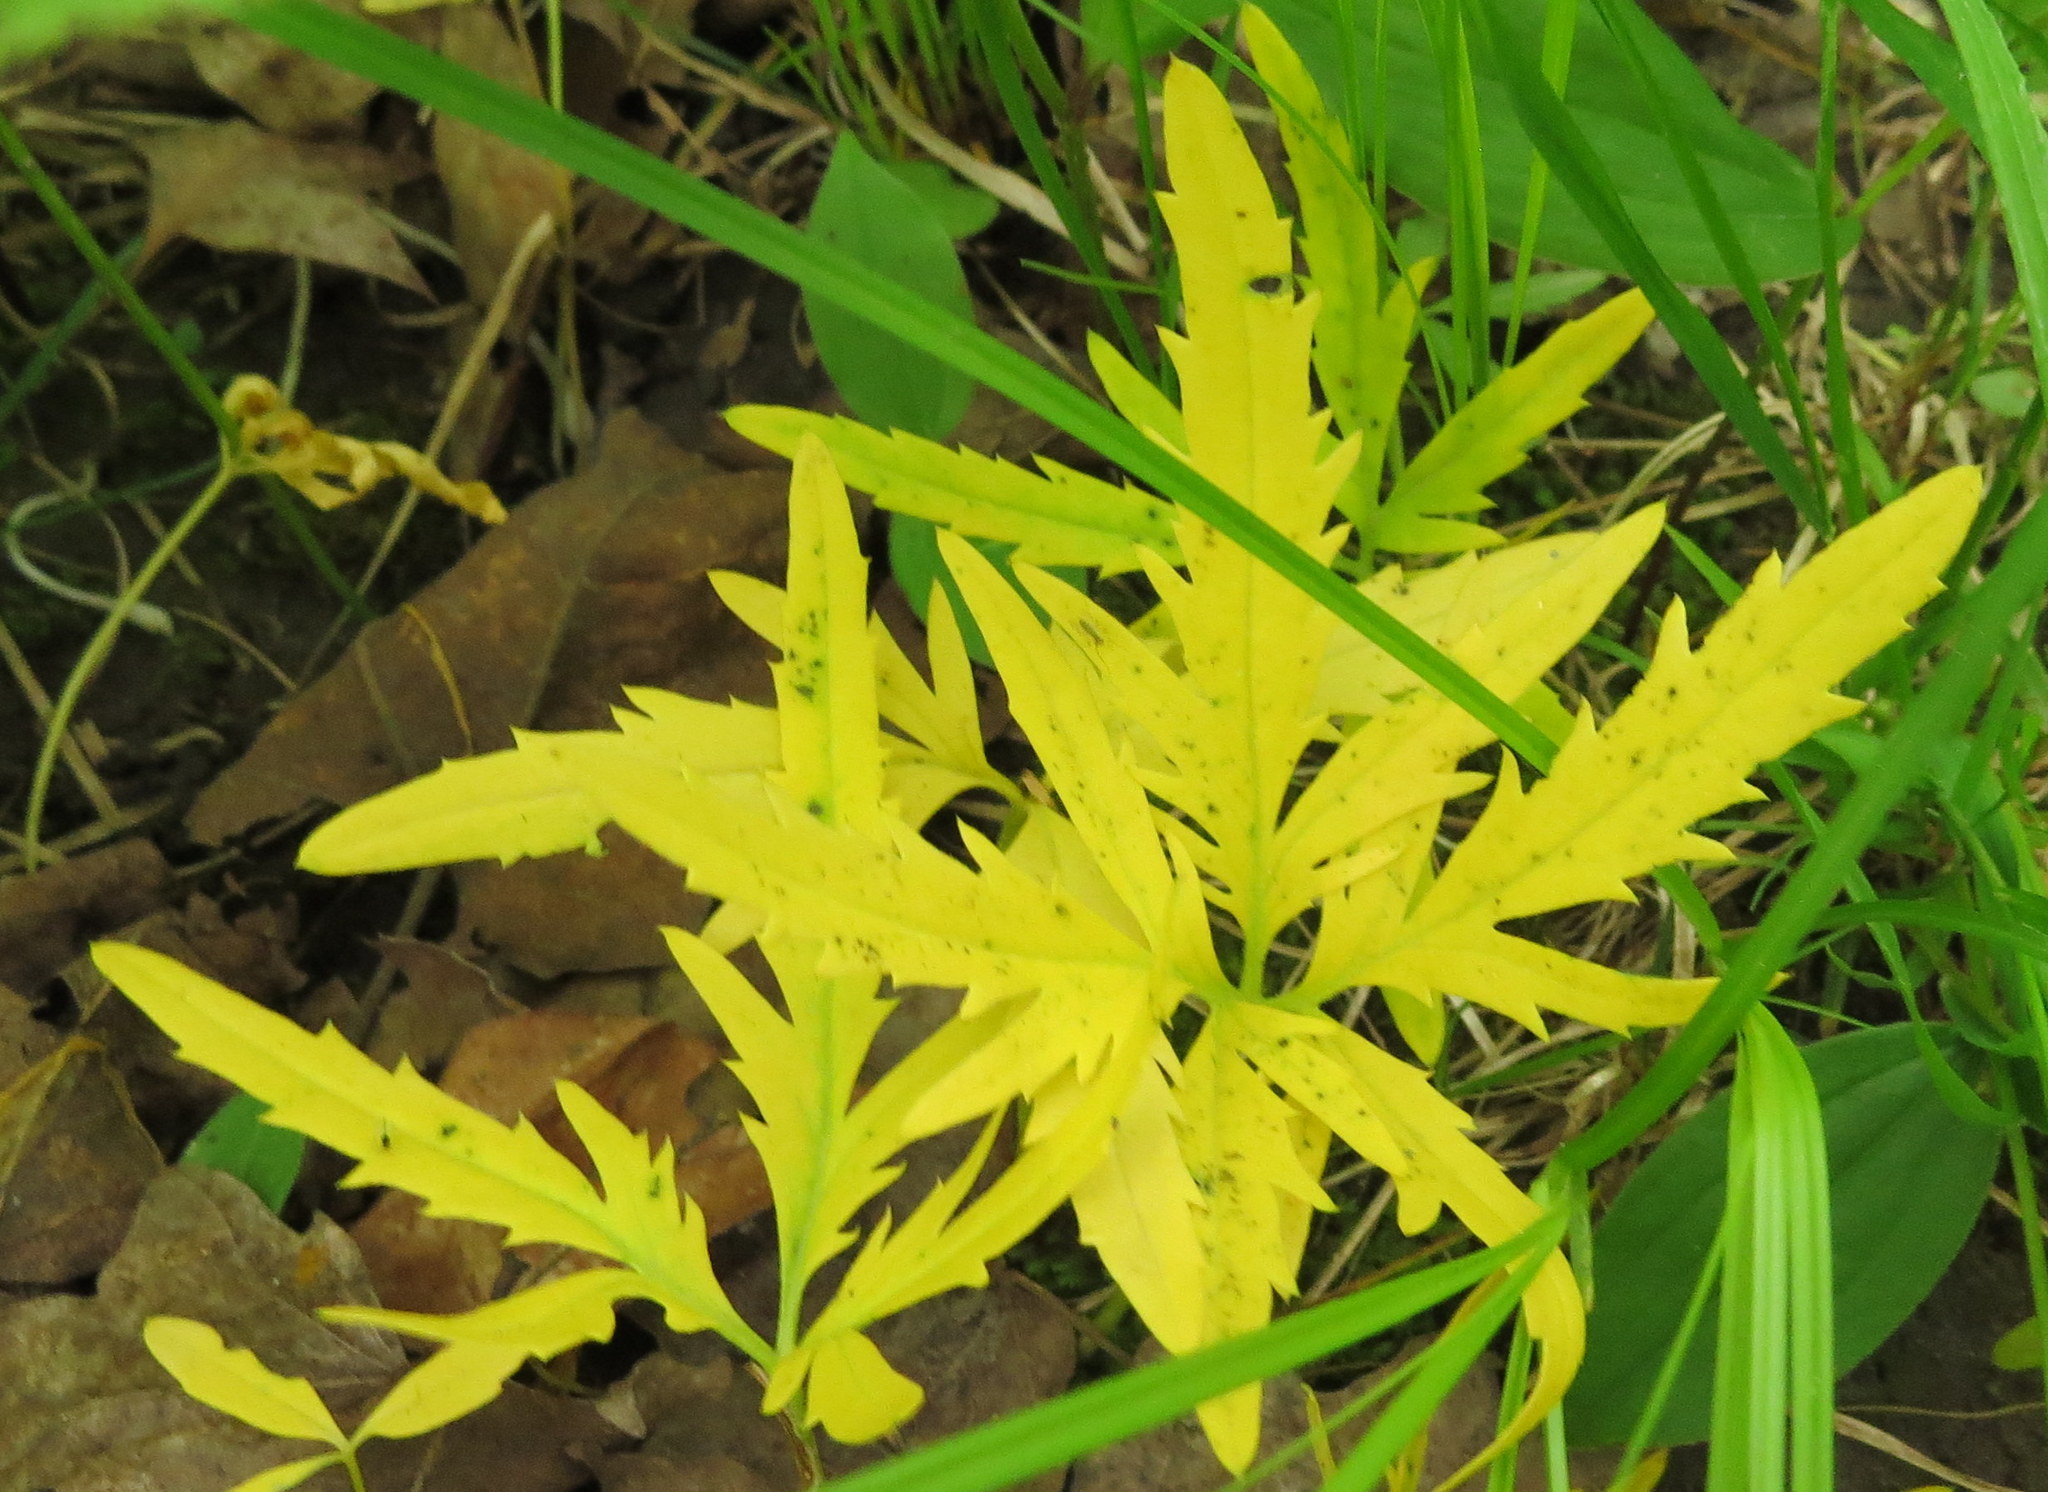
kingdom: Plantae
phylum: Tracheophyta
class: Magnoliopsida
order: Brassicales
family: Brassicaceae
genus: Cardamine
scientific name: Cardamine concatenata
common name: Cut-leaf toothcup
